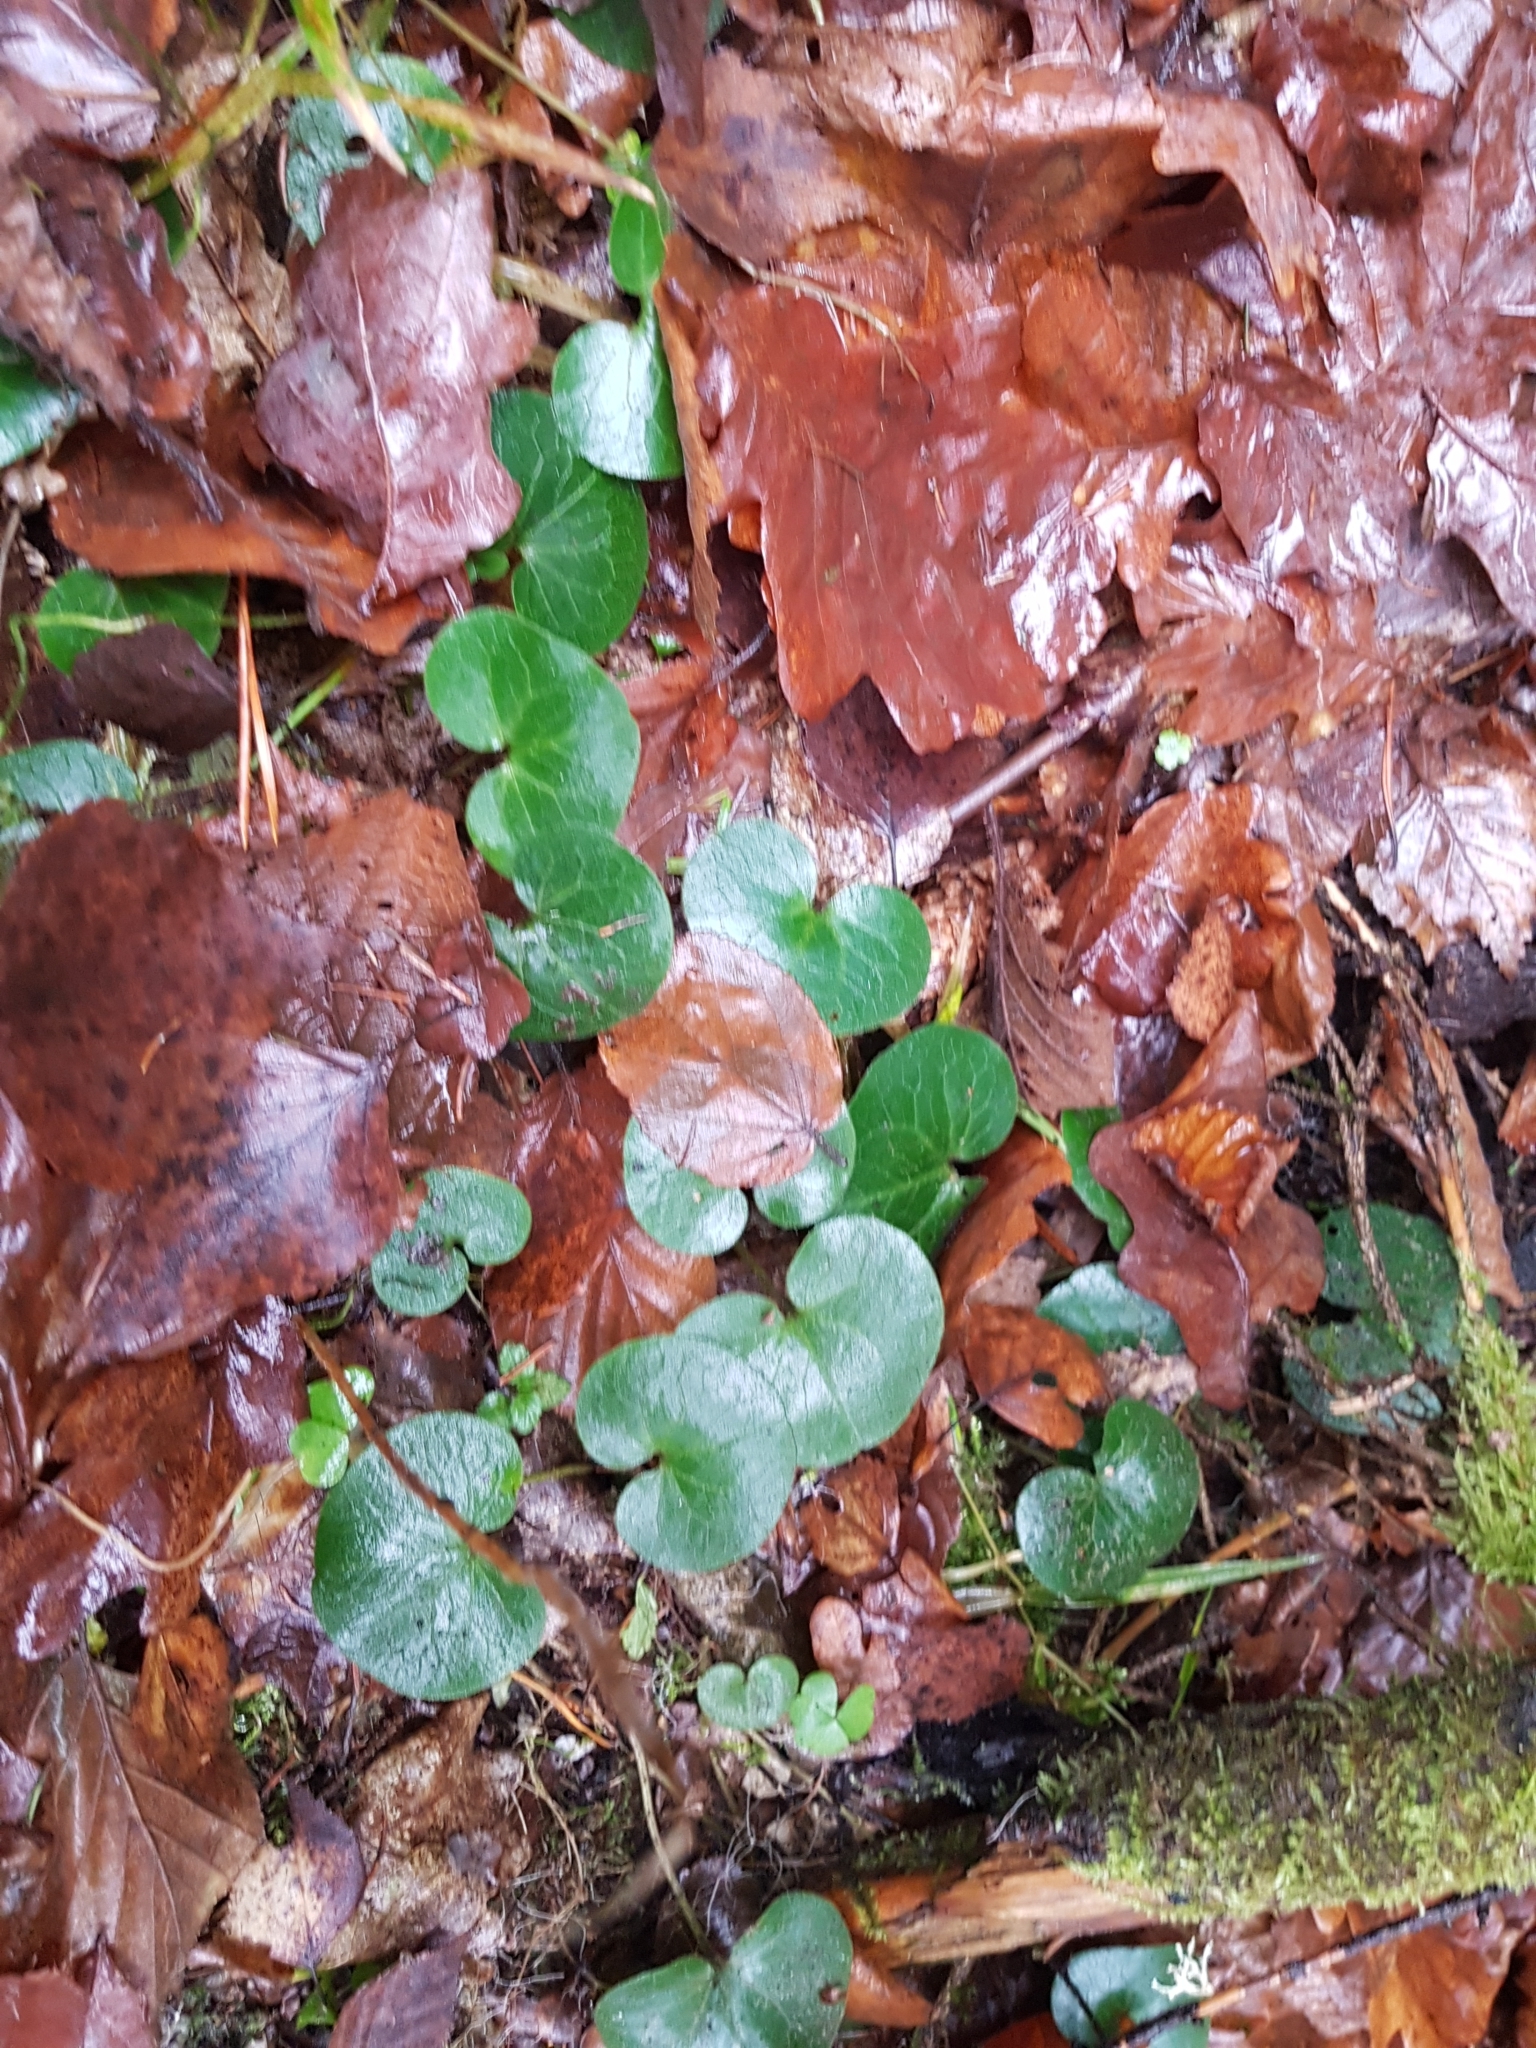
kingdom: Plantae
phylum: Tracheophyta
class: Magnoliopsida
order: Piperales
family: Aristolochiaceae
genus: Asarum
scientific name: Asarum europaeum
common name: Asarabacca
